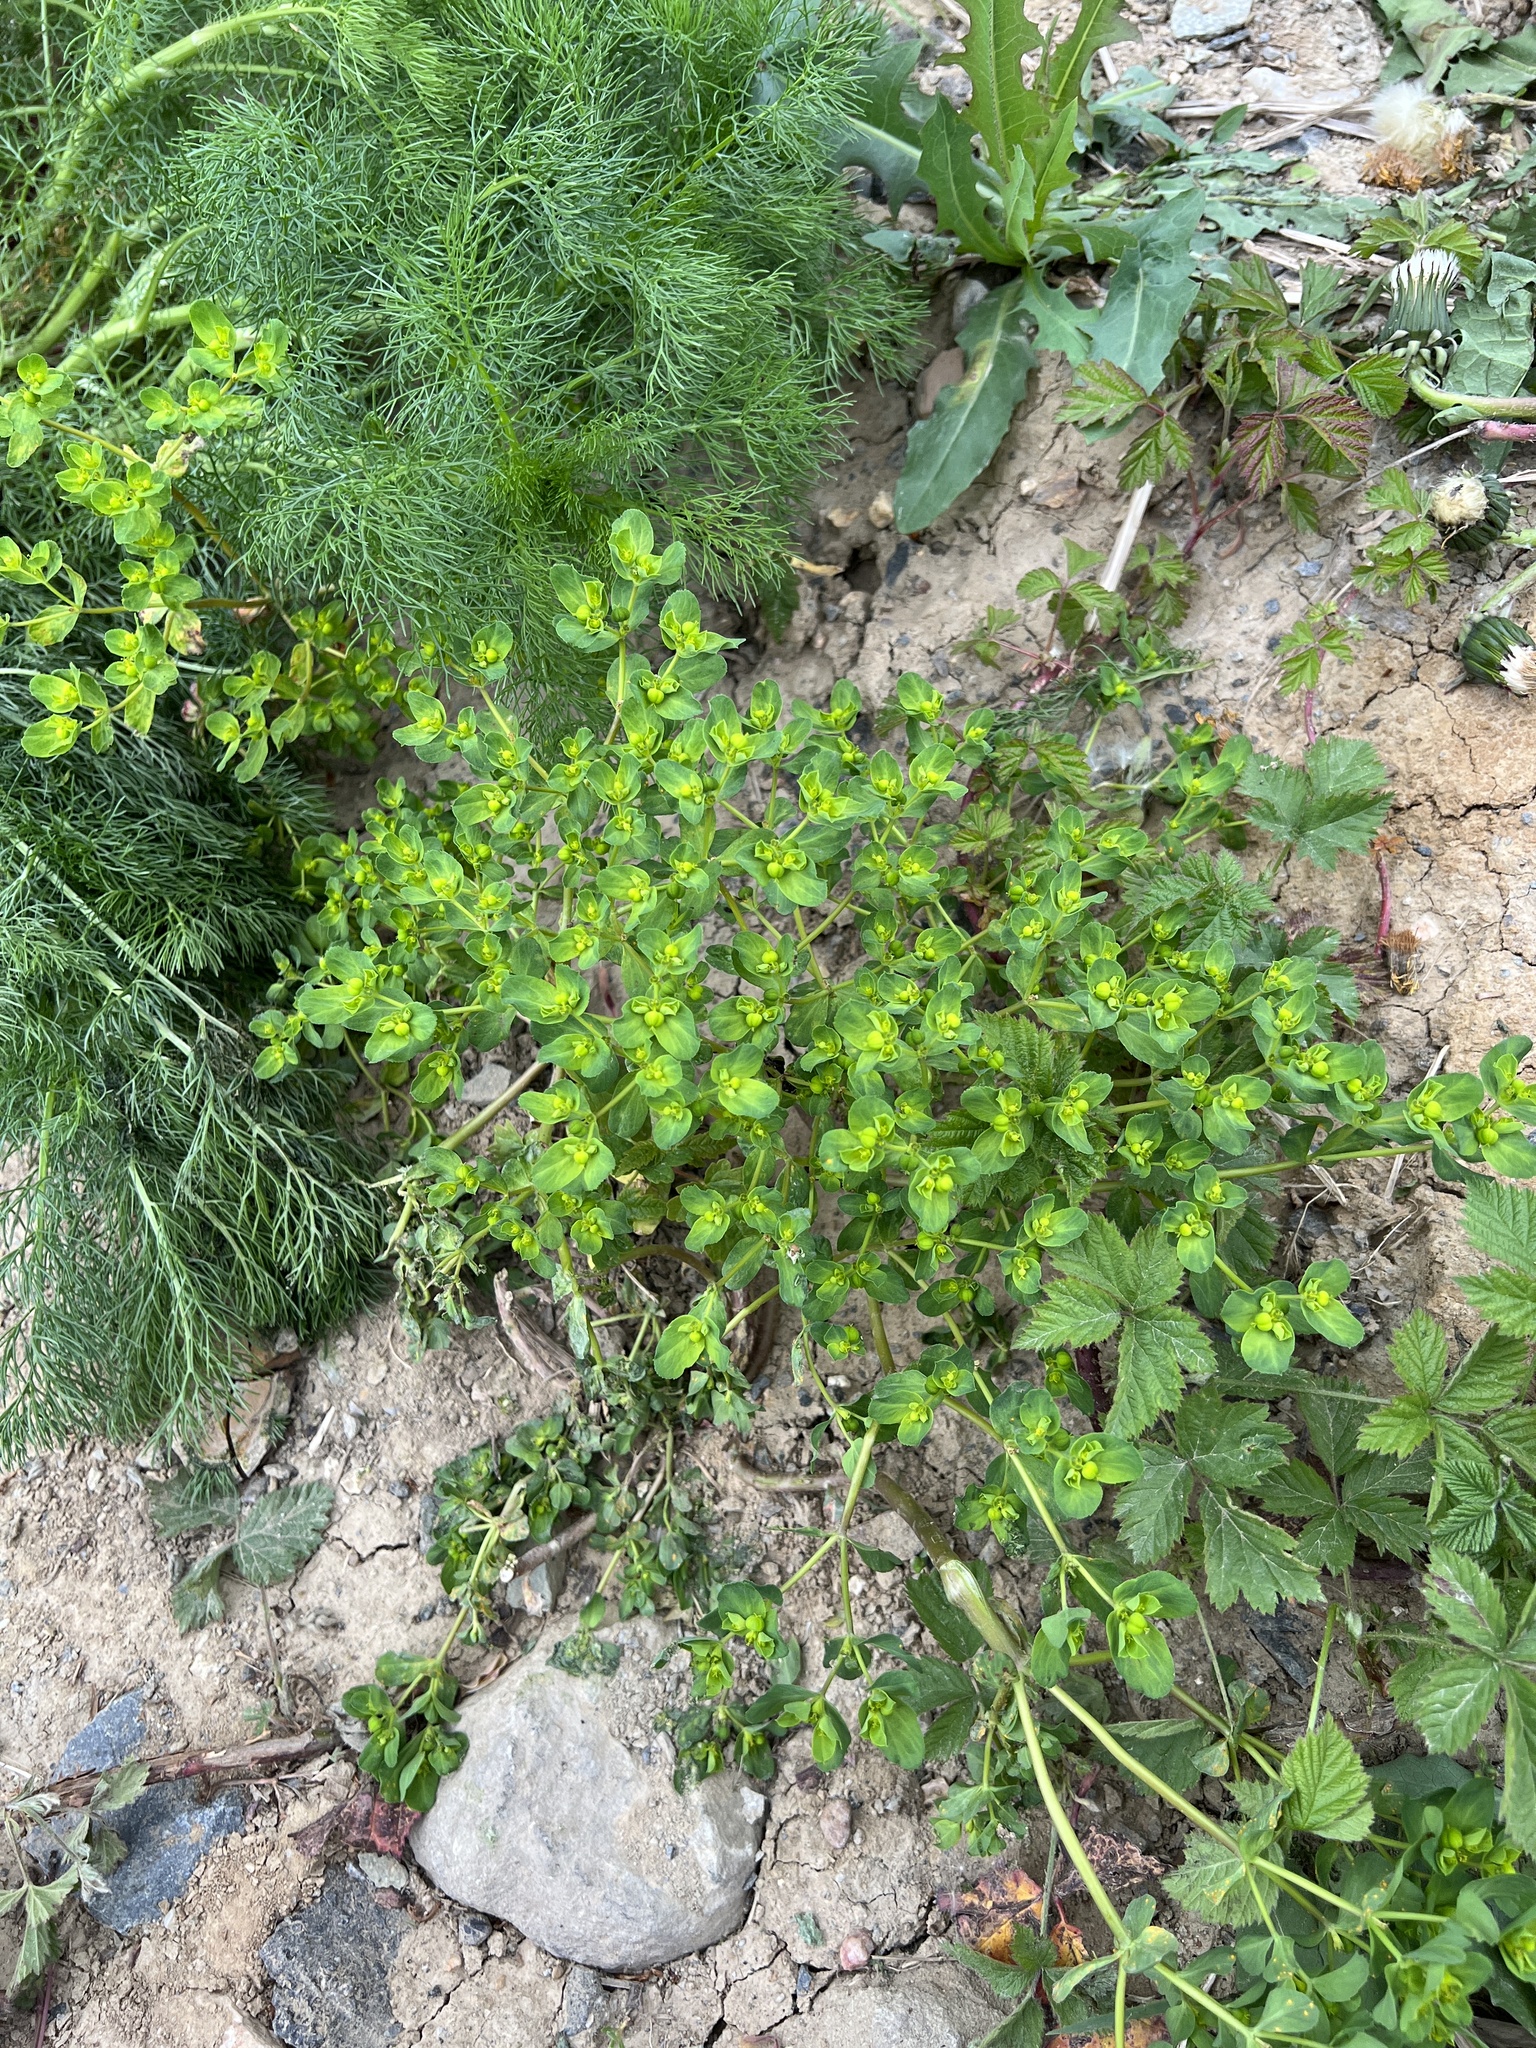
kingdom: Plantae
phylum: Tracheophyta
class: Magnoliopsida
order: Malpighiales
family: Euphorbiaceae
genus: Euphorbia
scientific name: Euphorbia helioscopia
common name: Sun spurge
